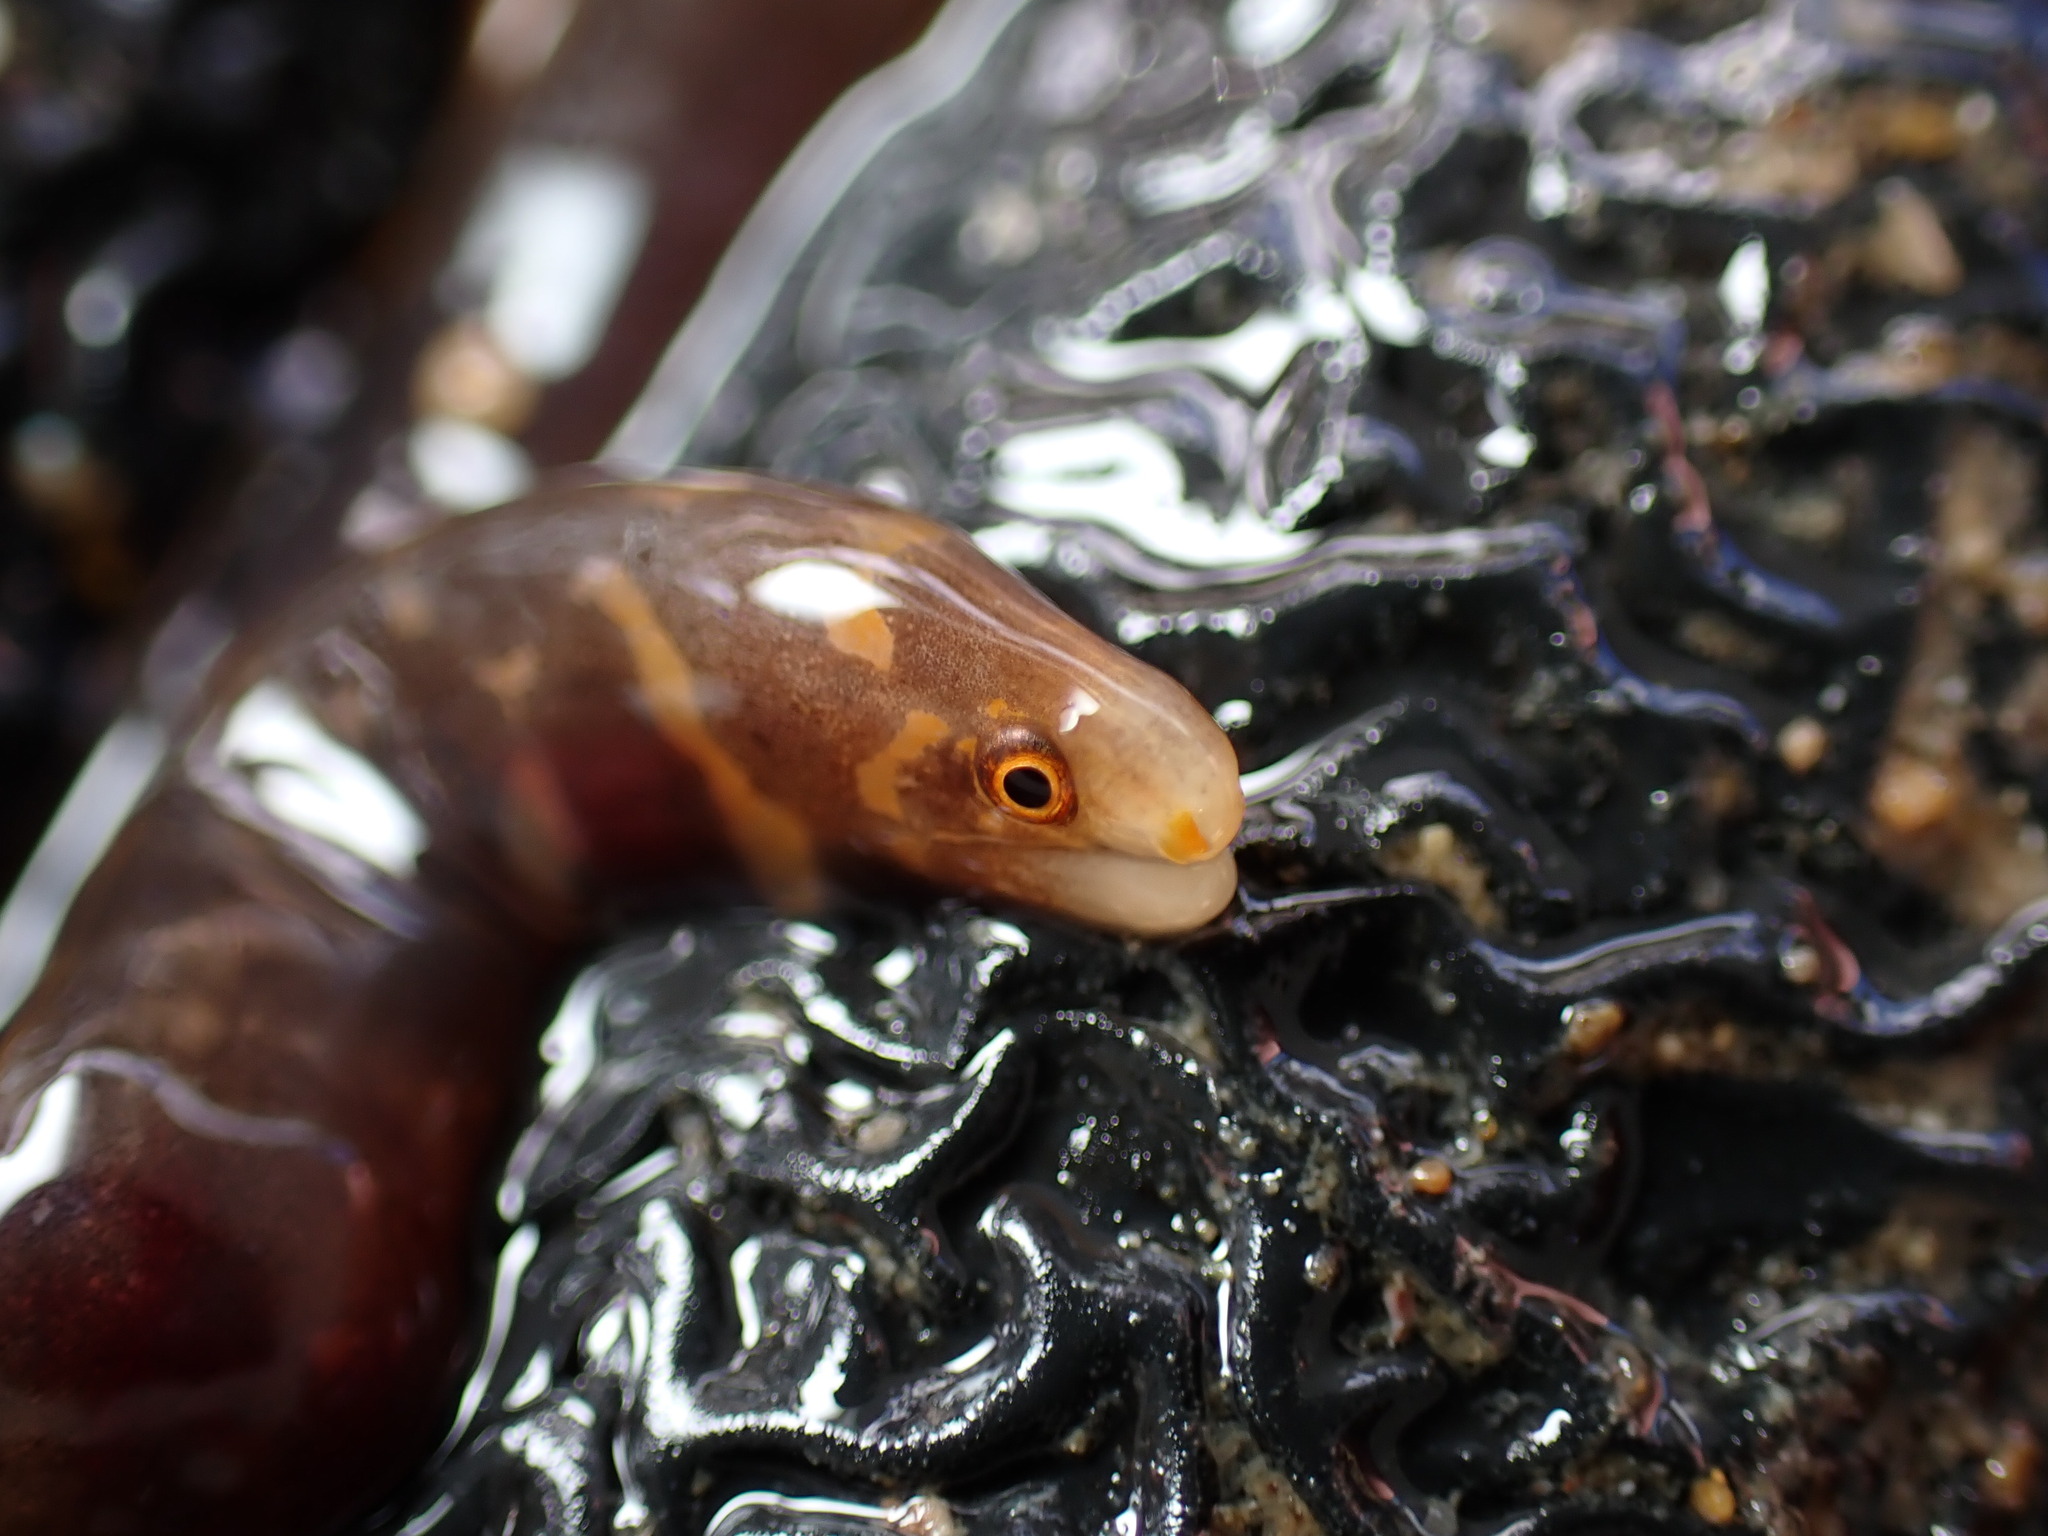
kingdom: Animalia
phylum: Chordata
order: Anguilliformes
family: Muraenidae
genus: Echidna
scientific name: Echidna polyzona
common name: Barred moray
